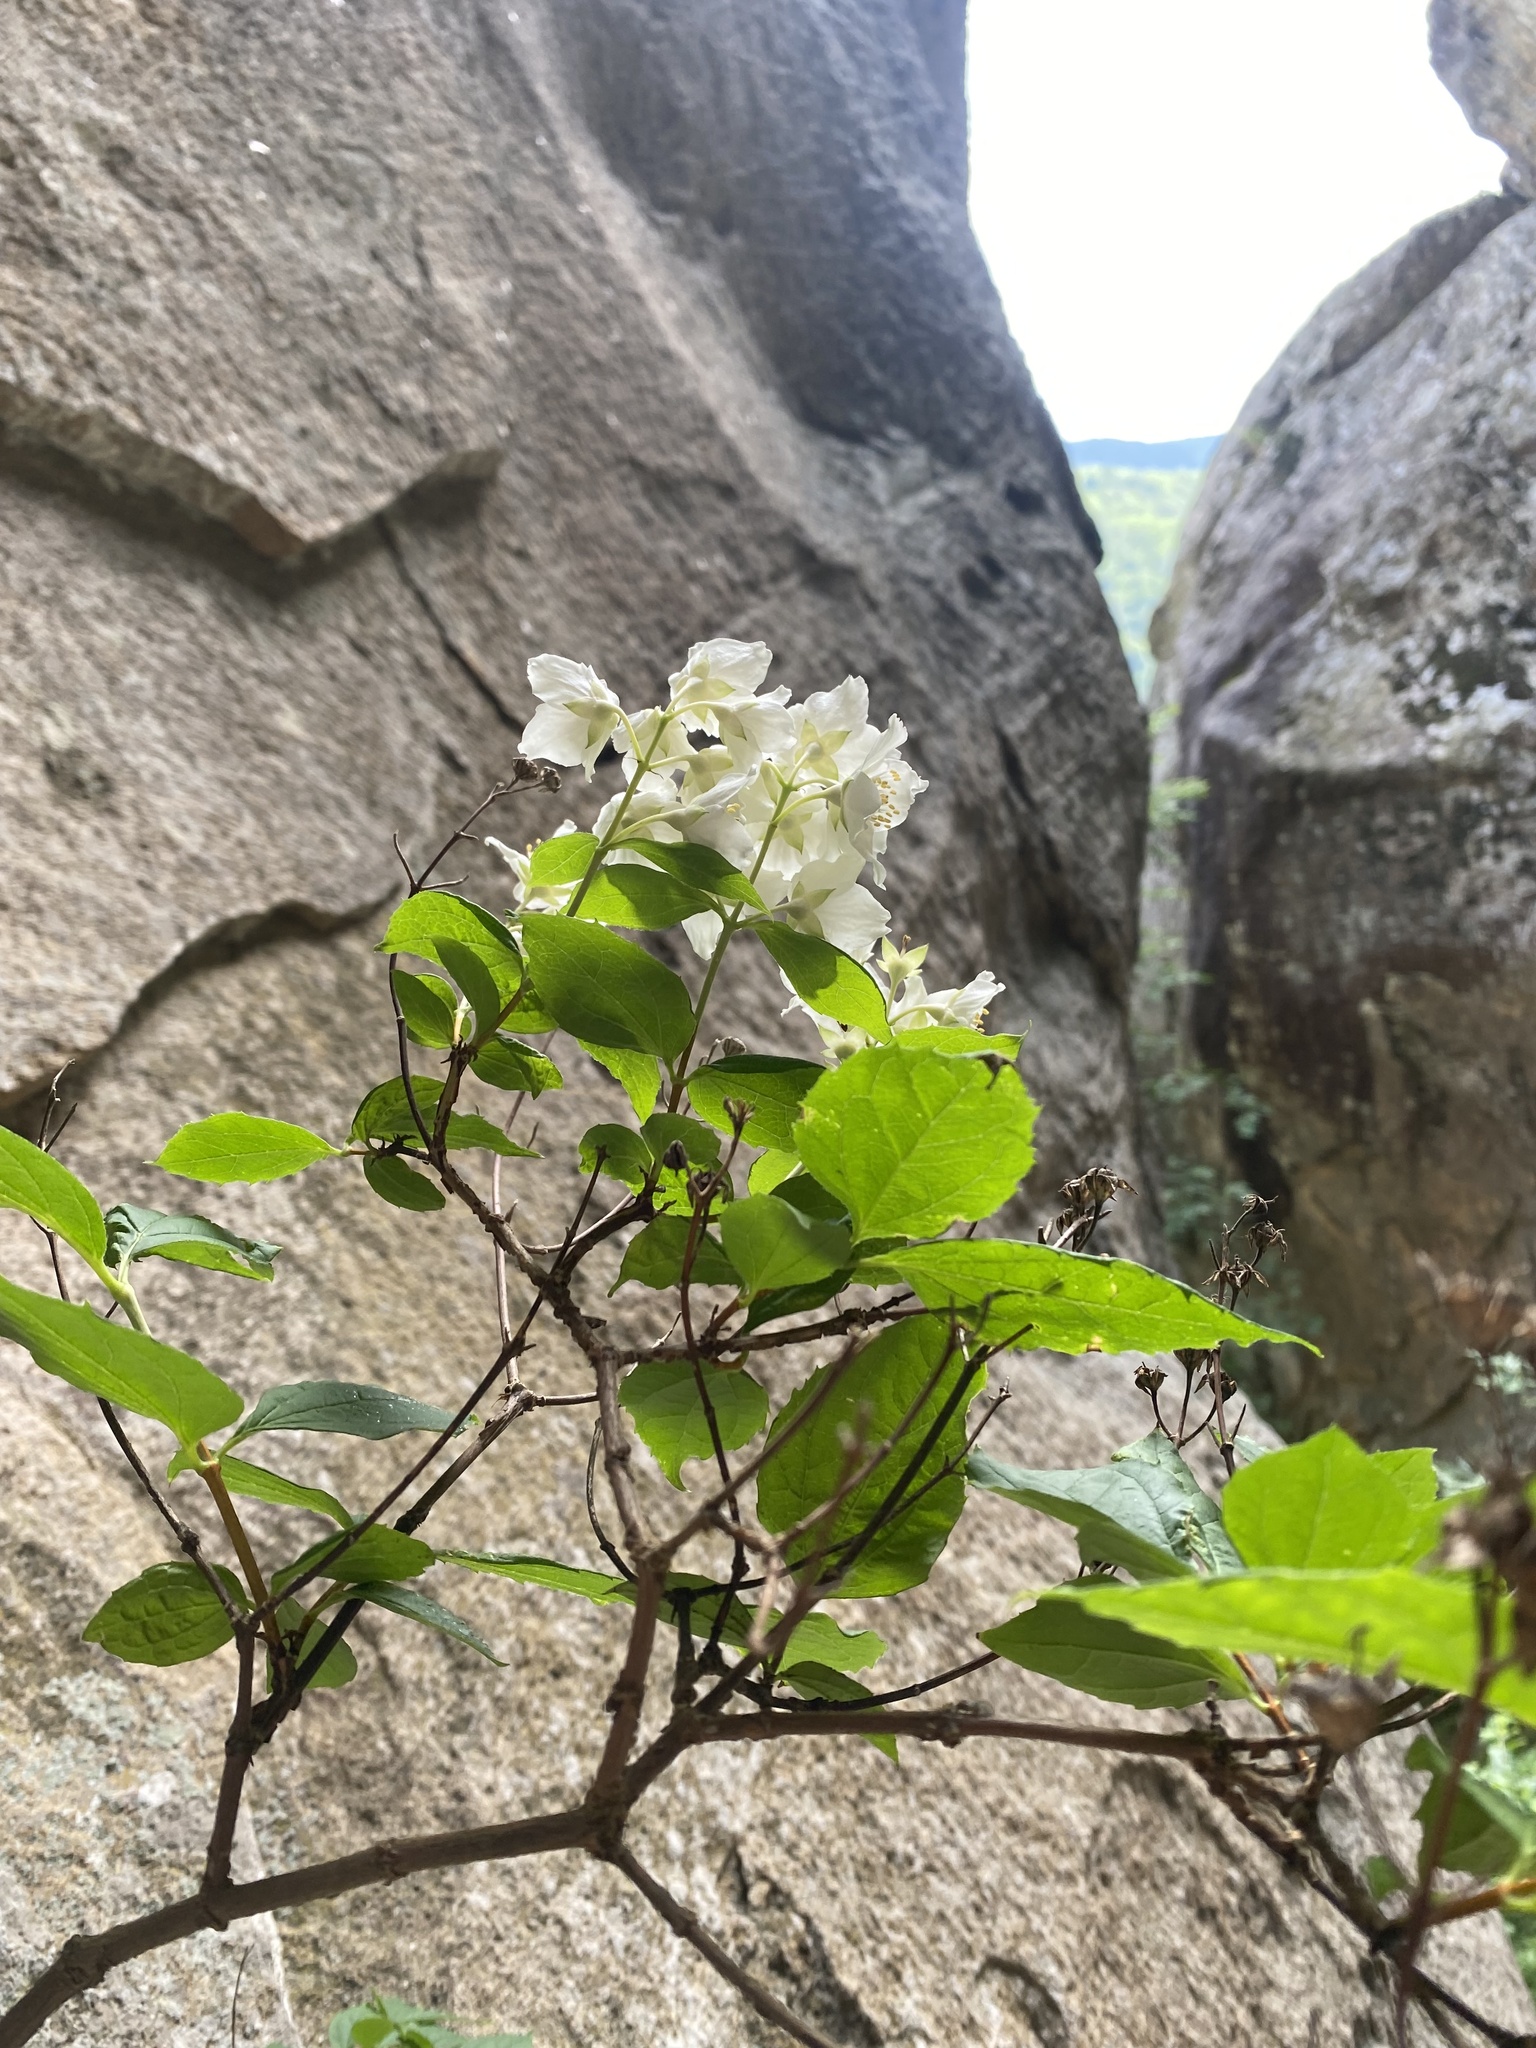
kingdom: Plantae
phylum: Tracheophyta
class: Magnoliopsida
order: Cornales
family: Hydrangeaceae
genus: Philadelphus
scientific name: Philadelphus coronarius
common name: Mock orange
